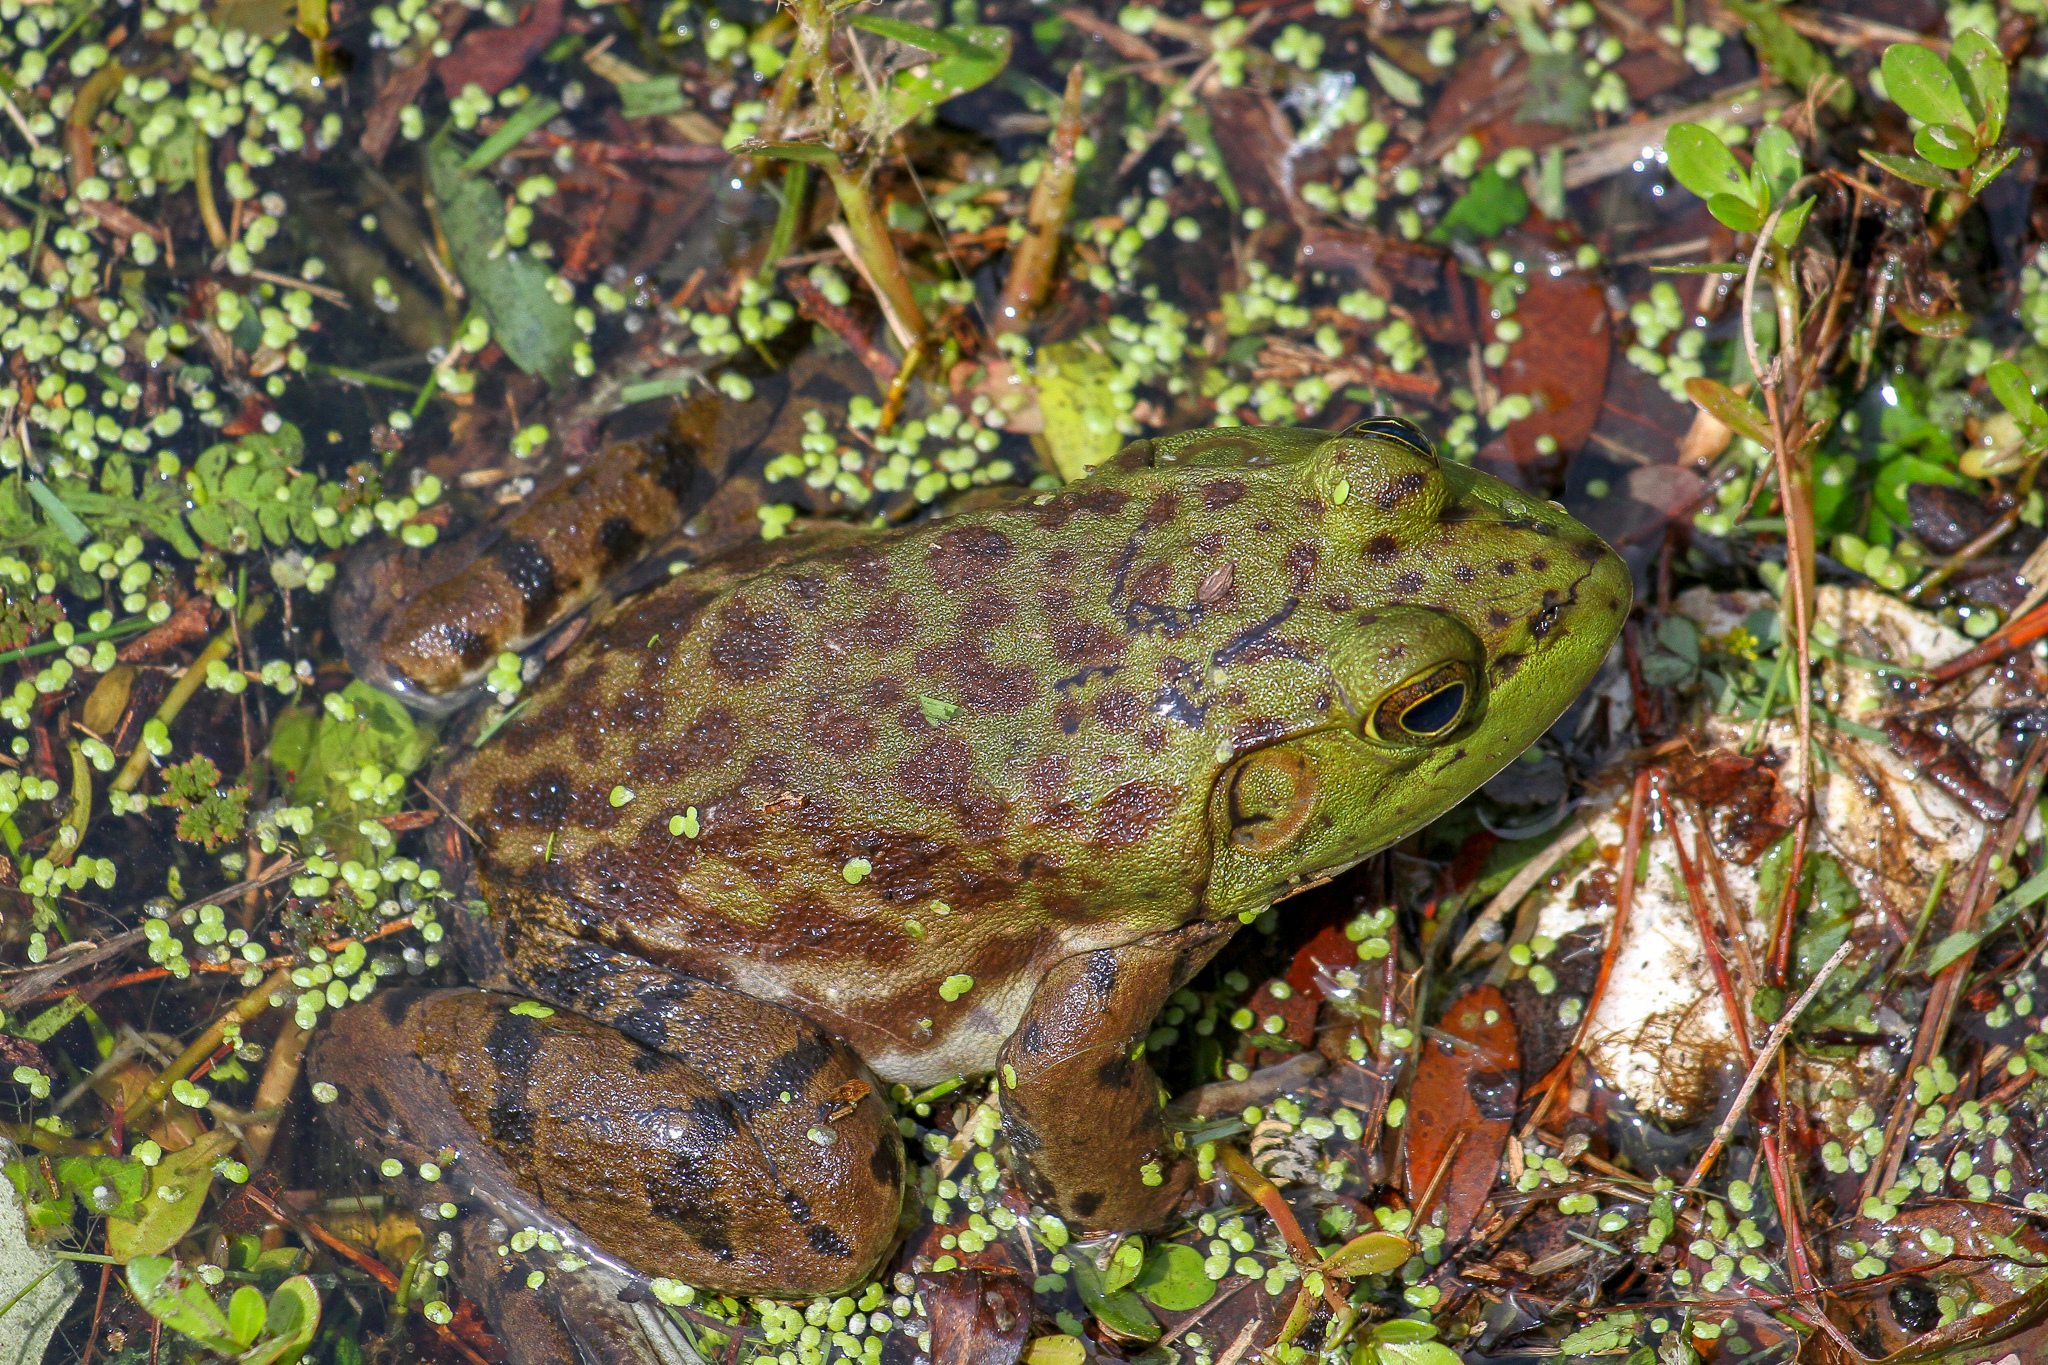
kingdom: Animalia
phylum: Chordata
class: Amphibia
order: Anura
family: Ranidae
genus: Lithobates
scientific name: Lithobates catesbeianus
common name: American bullfrog
